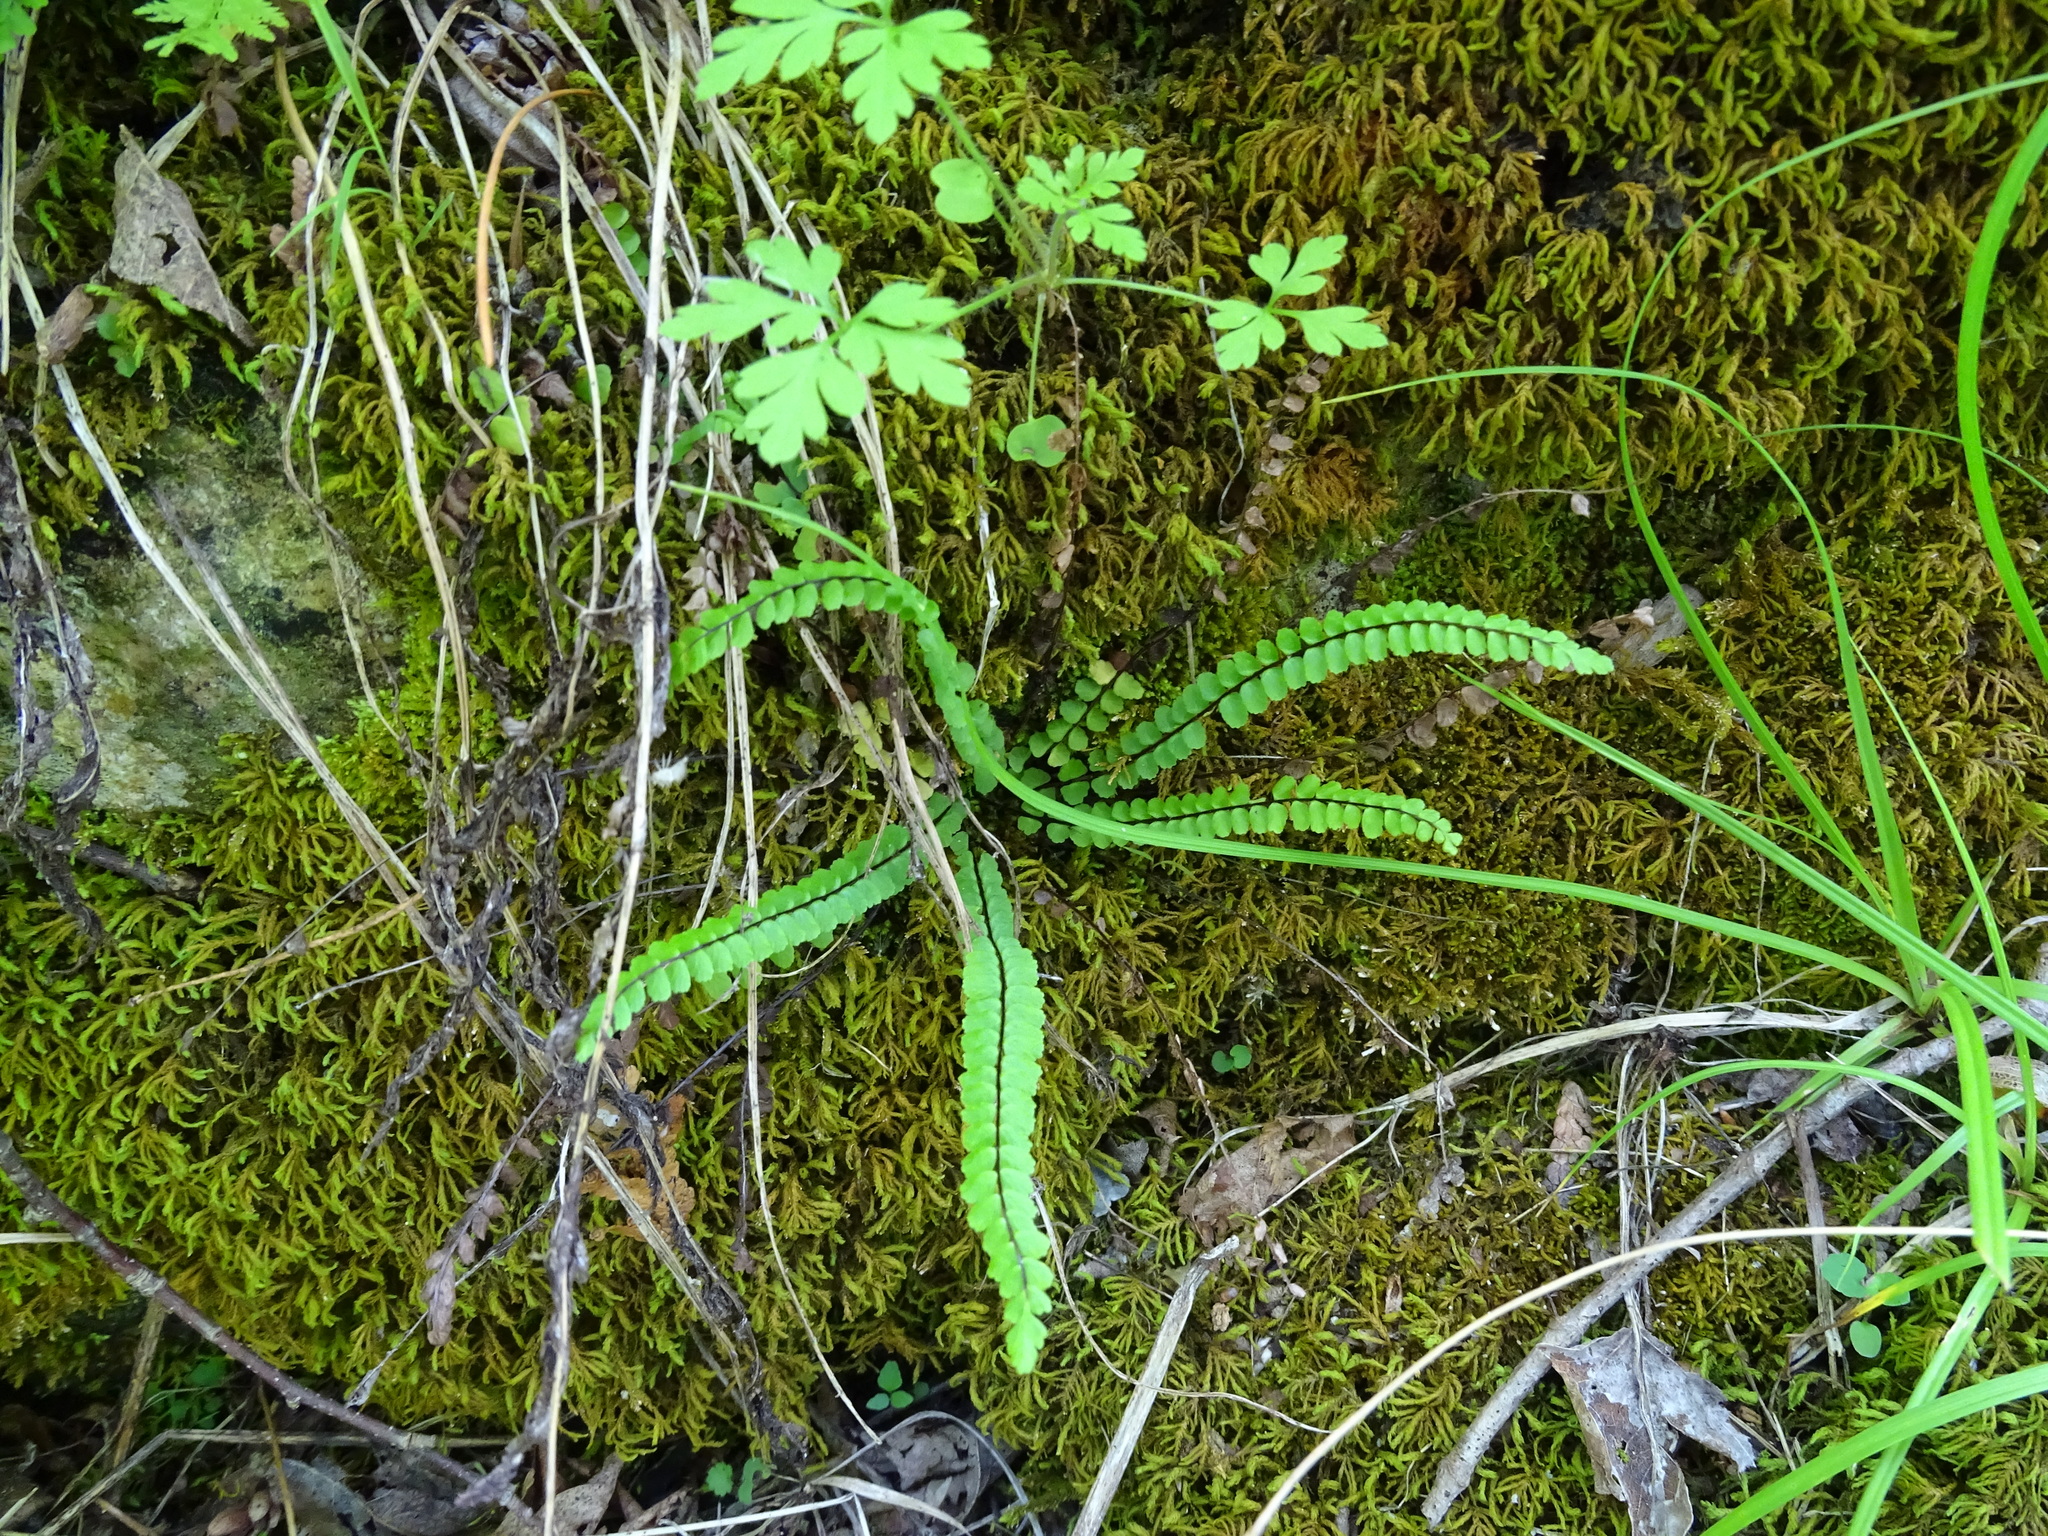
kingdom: Plantae
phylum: Tracheophyta
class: Polypodiopsida
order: Polypodiales
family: Aspleniaceae
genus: Asplenium
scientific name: Asplenium trichomanes
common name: Maidenhair spleenwort
